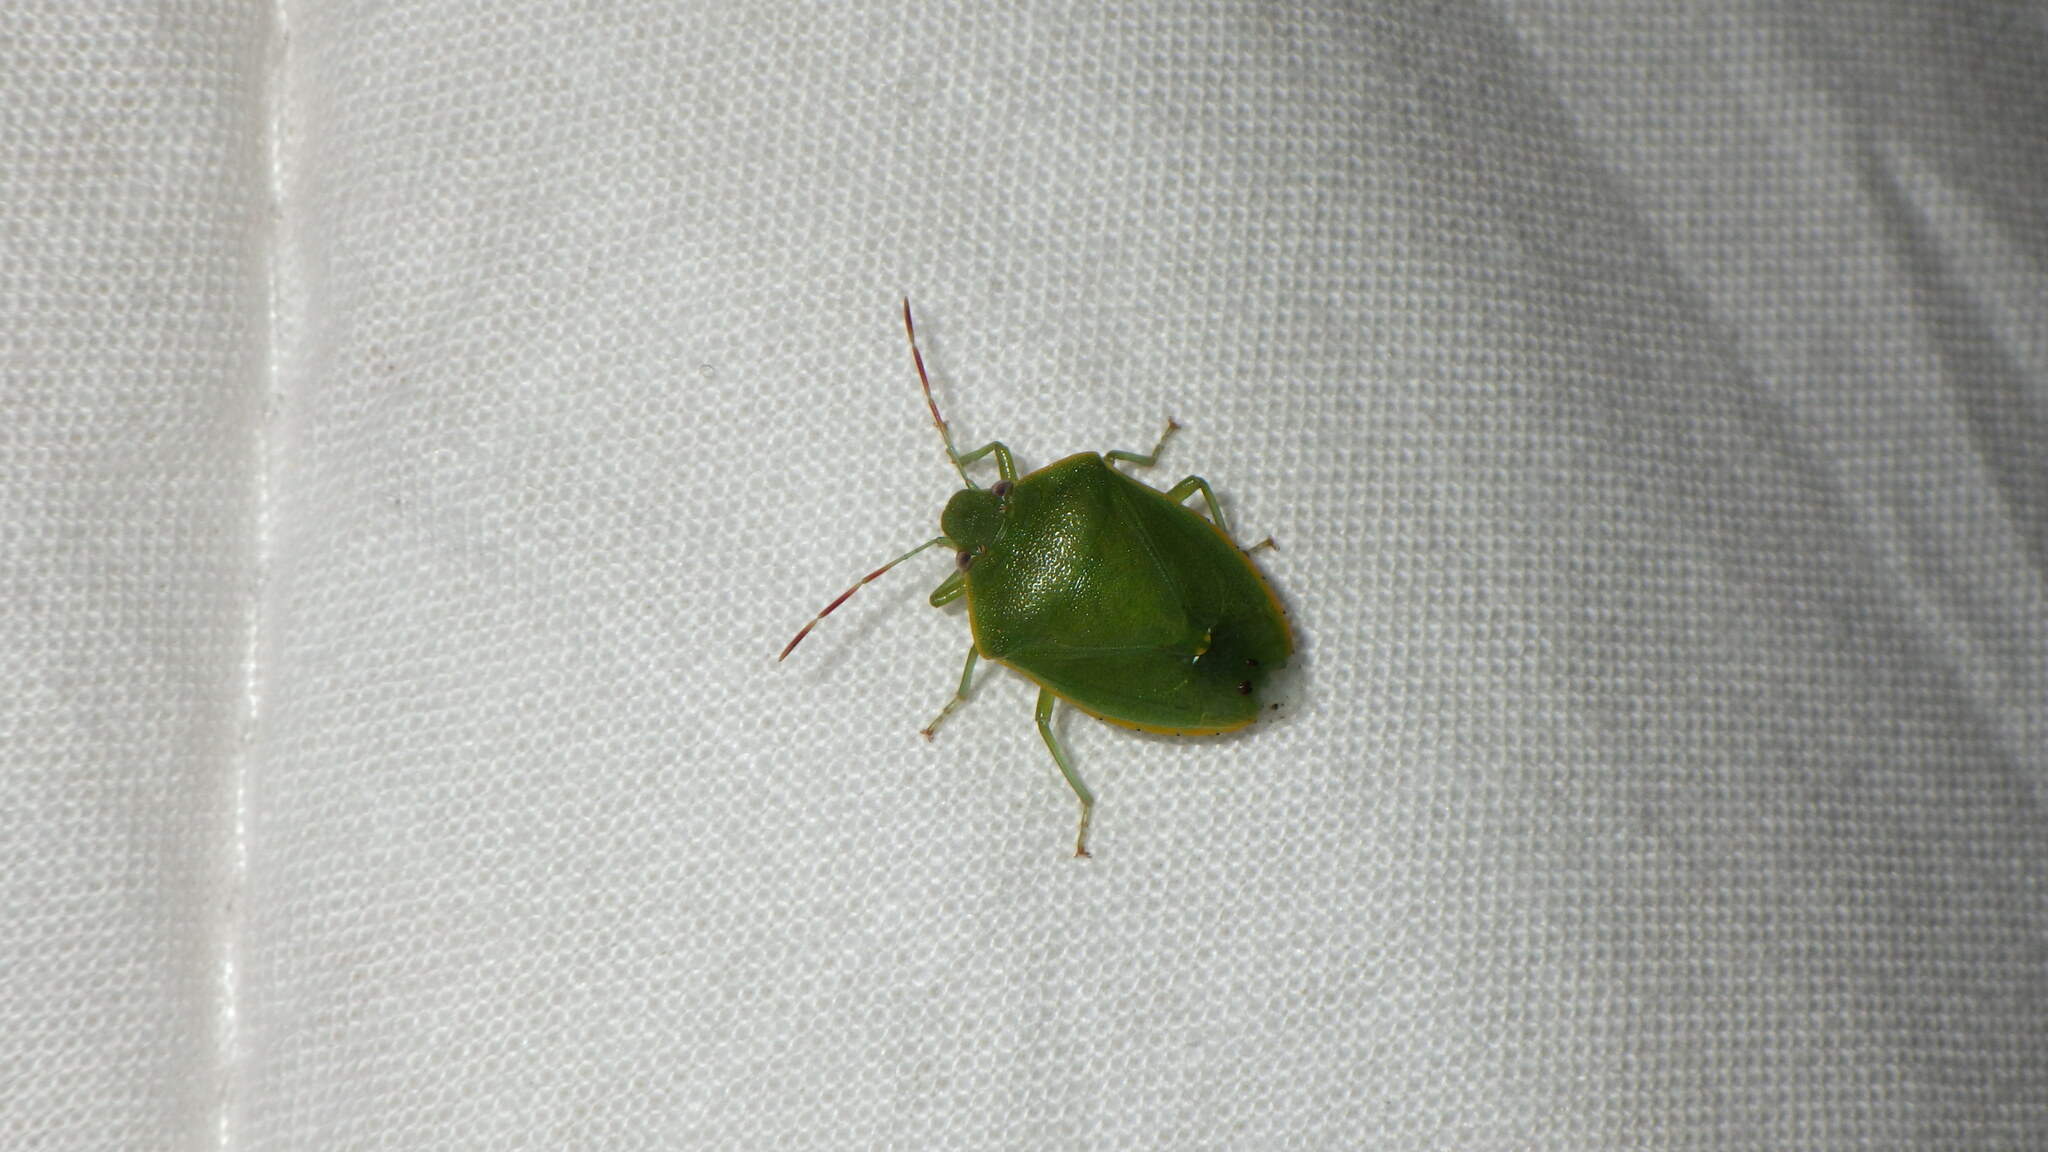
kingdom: Animalia
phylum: Arthropoda
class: Insecta
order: Hemiptera
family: Pentatomidae
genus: Acrosternum
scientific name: Acrosternum heegeri
